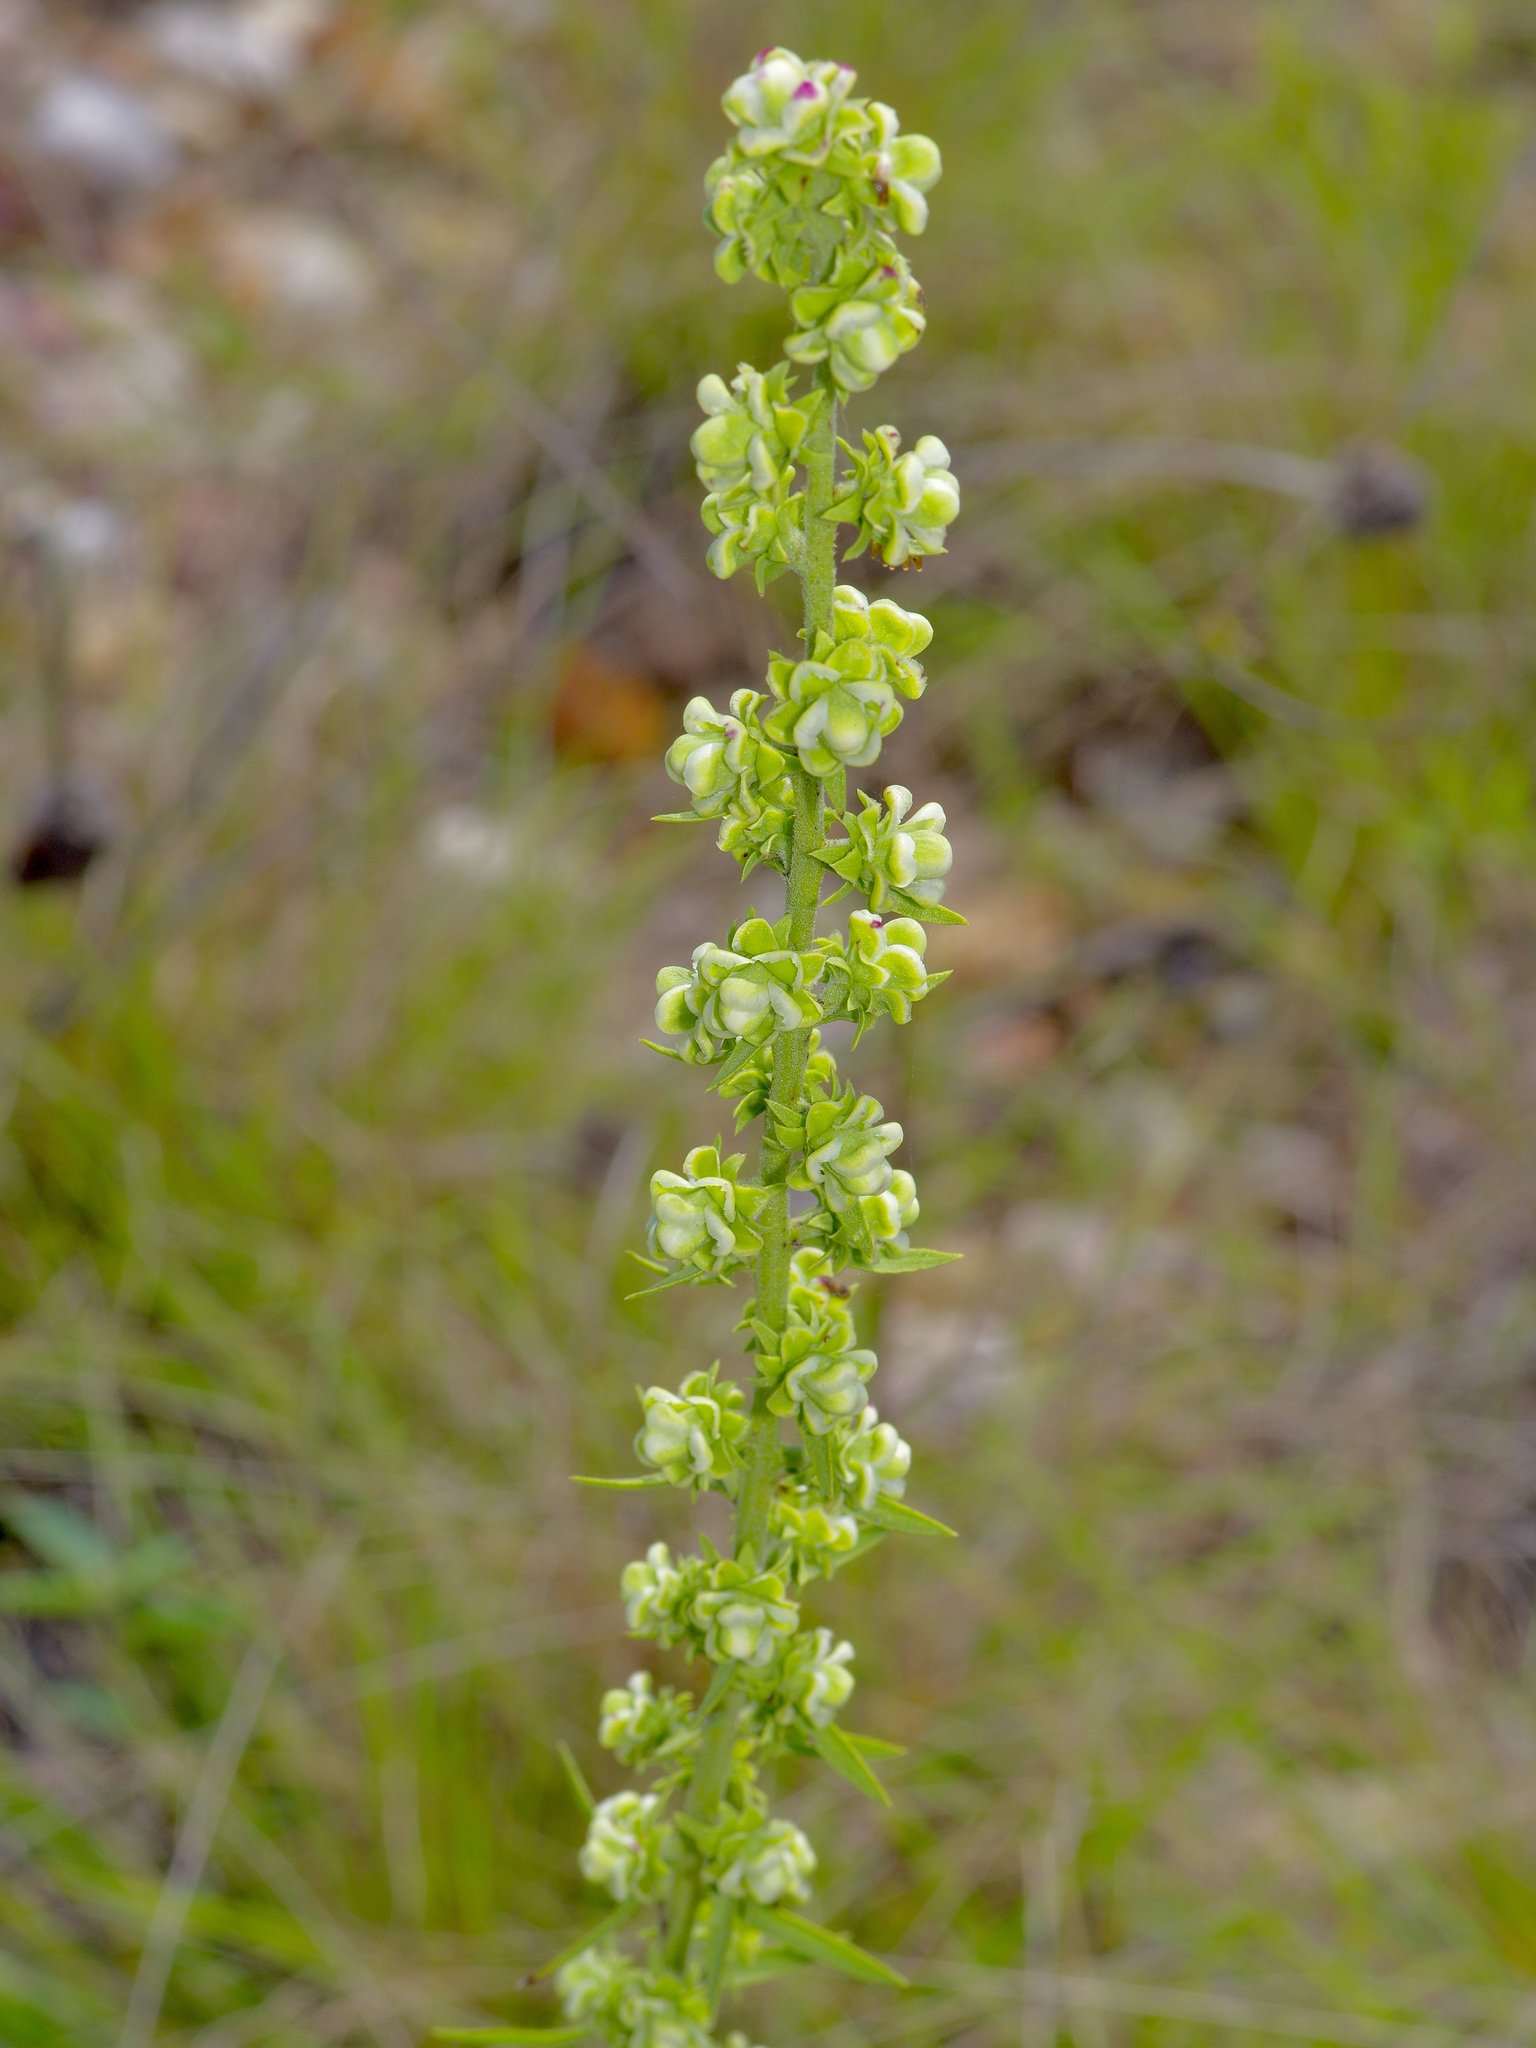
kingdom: Plantae
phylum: Tracheophyta
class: Magnoliopsida
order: Asterales
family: Asteraceae
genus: Liatris
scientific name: Liatris aspera
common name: Lacerate blazing-star
